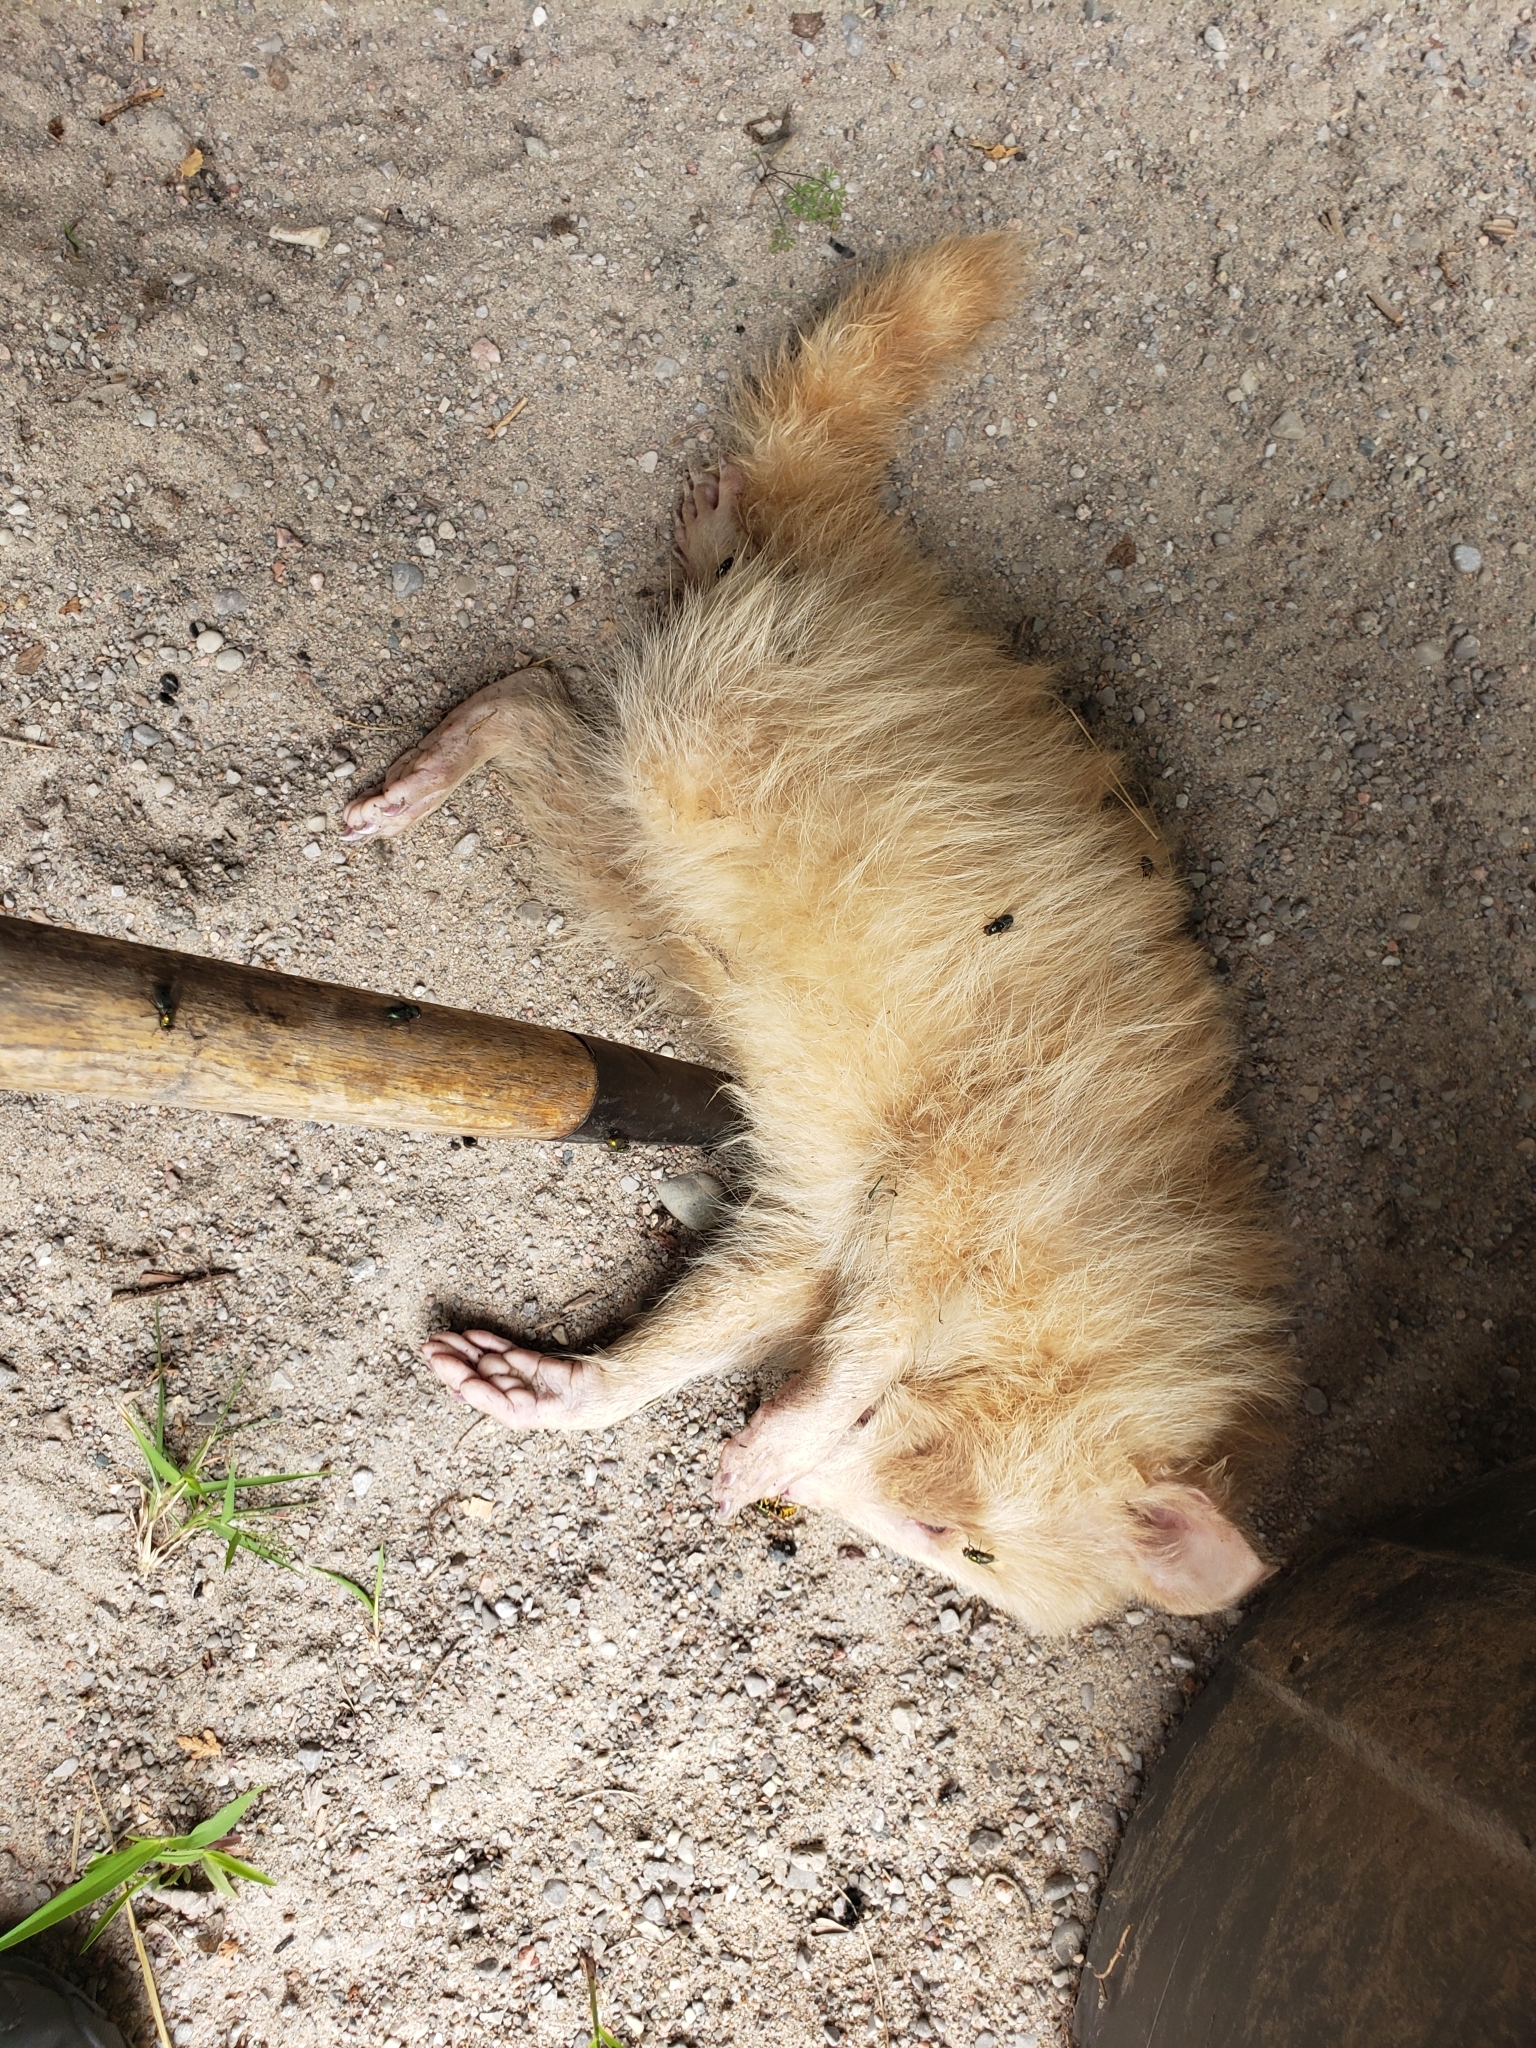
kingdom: Animalia
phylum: Chordata
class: Mammalia
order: Carnivora
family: Procyonidae
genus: Procyon
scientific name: Procyon lotor
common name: Raccoon
